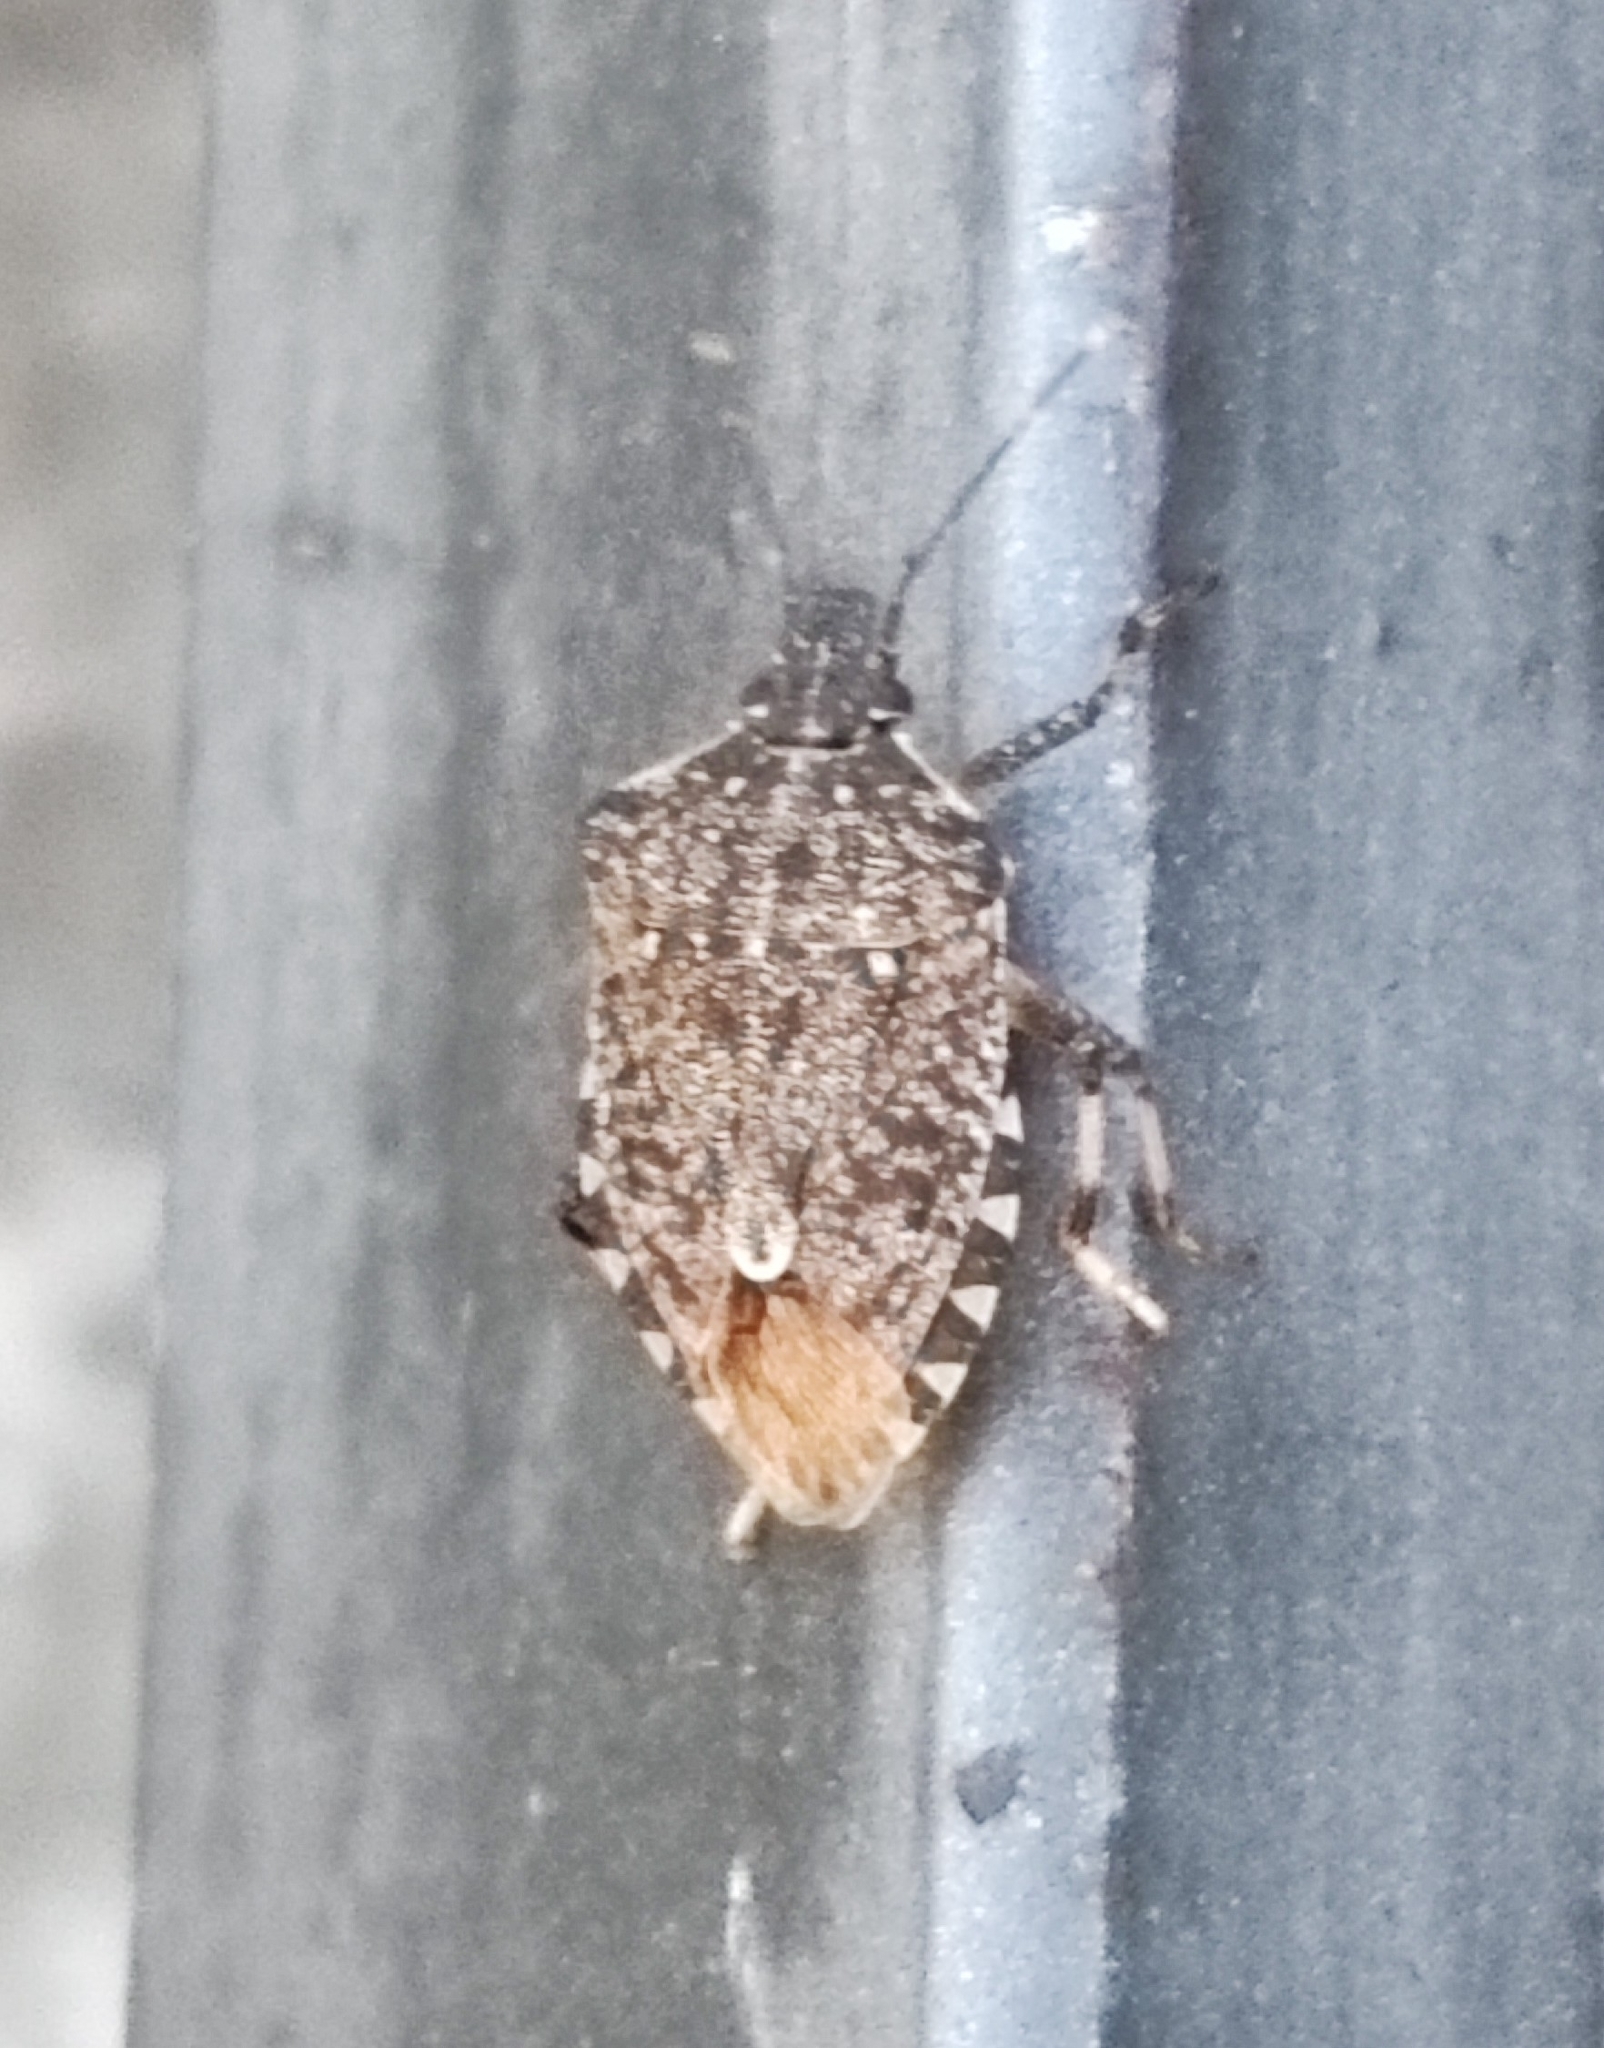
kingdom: Animalia
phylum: Arthropoda
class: Insecta
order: Hemiptera
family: Pentatomidae
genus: Halyomorpha
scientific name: Halyomorpha halys
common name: Brown marmorated stink bug
